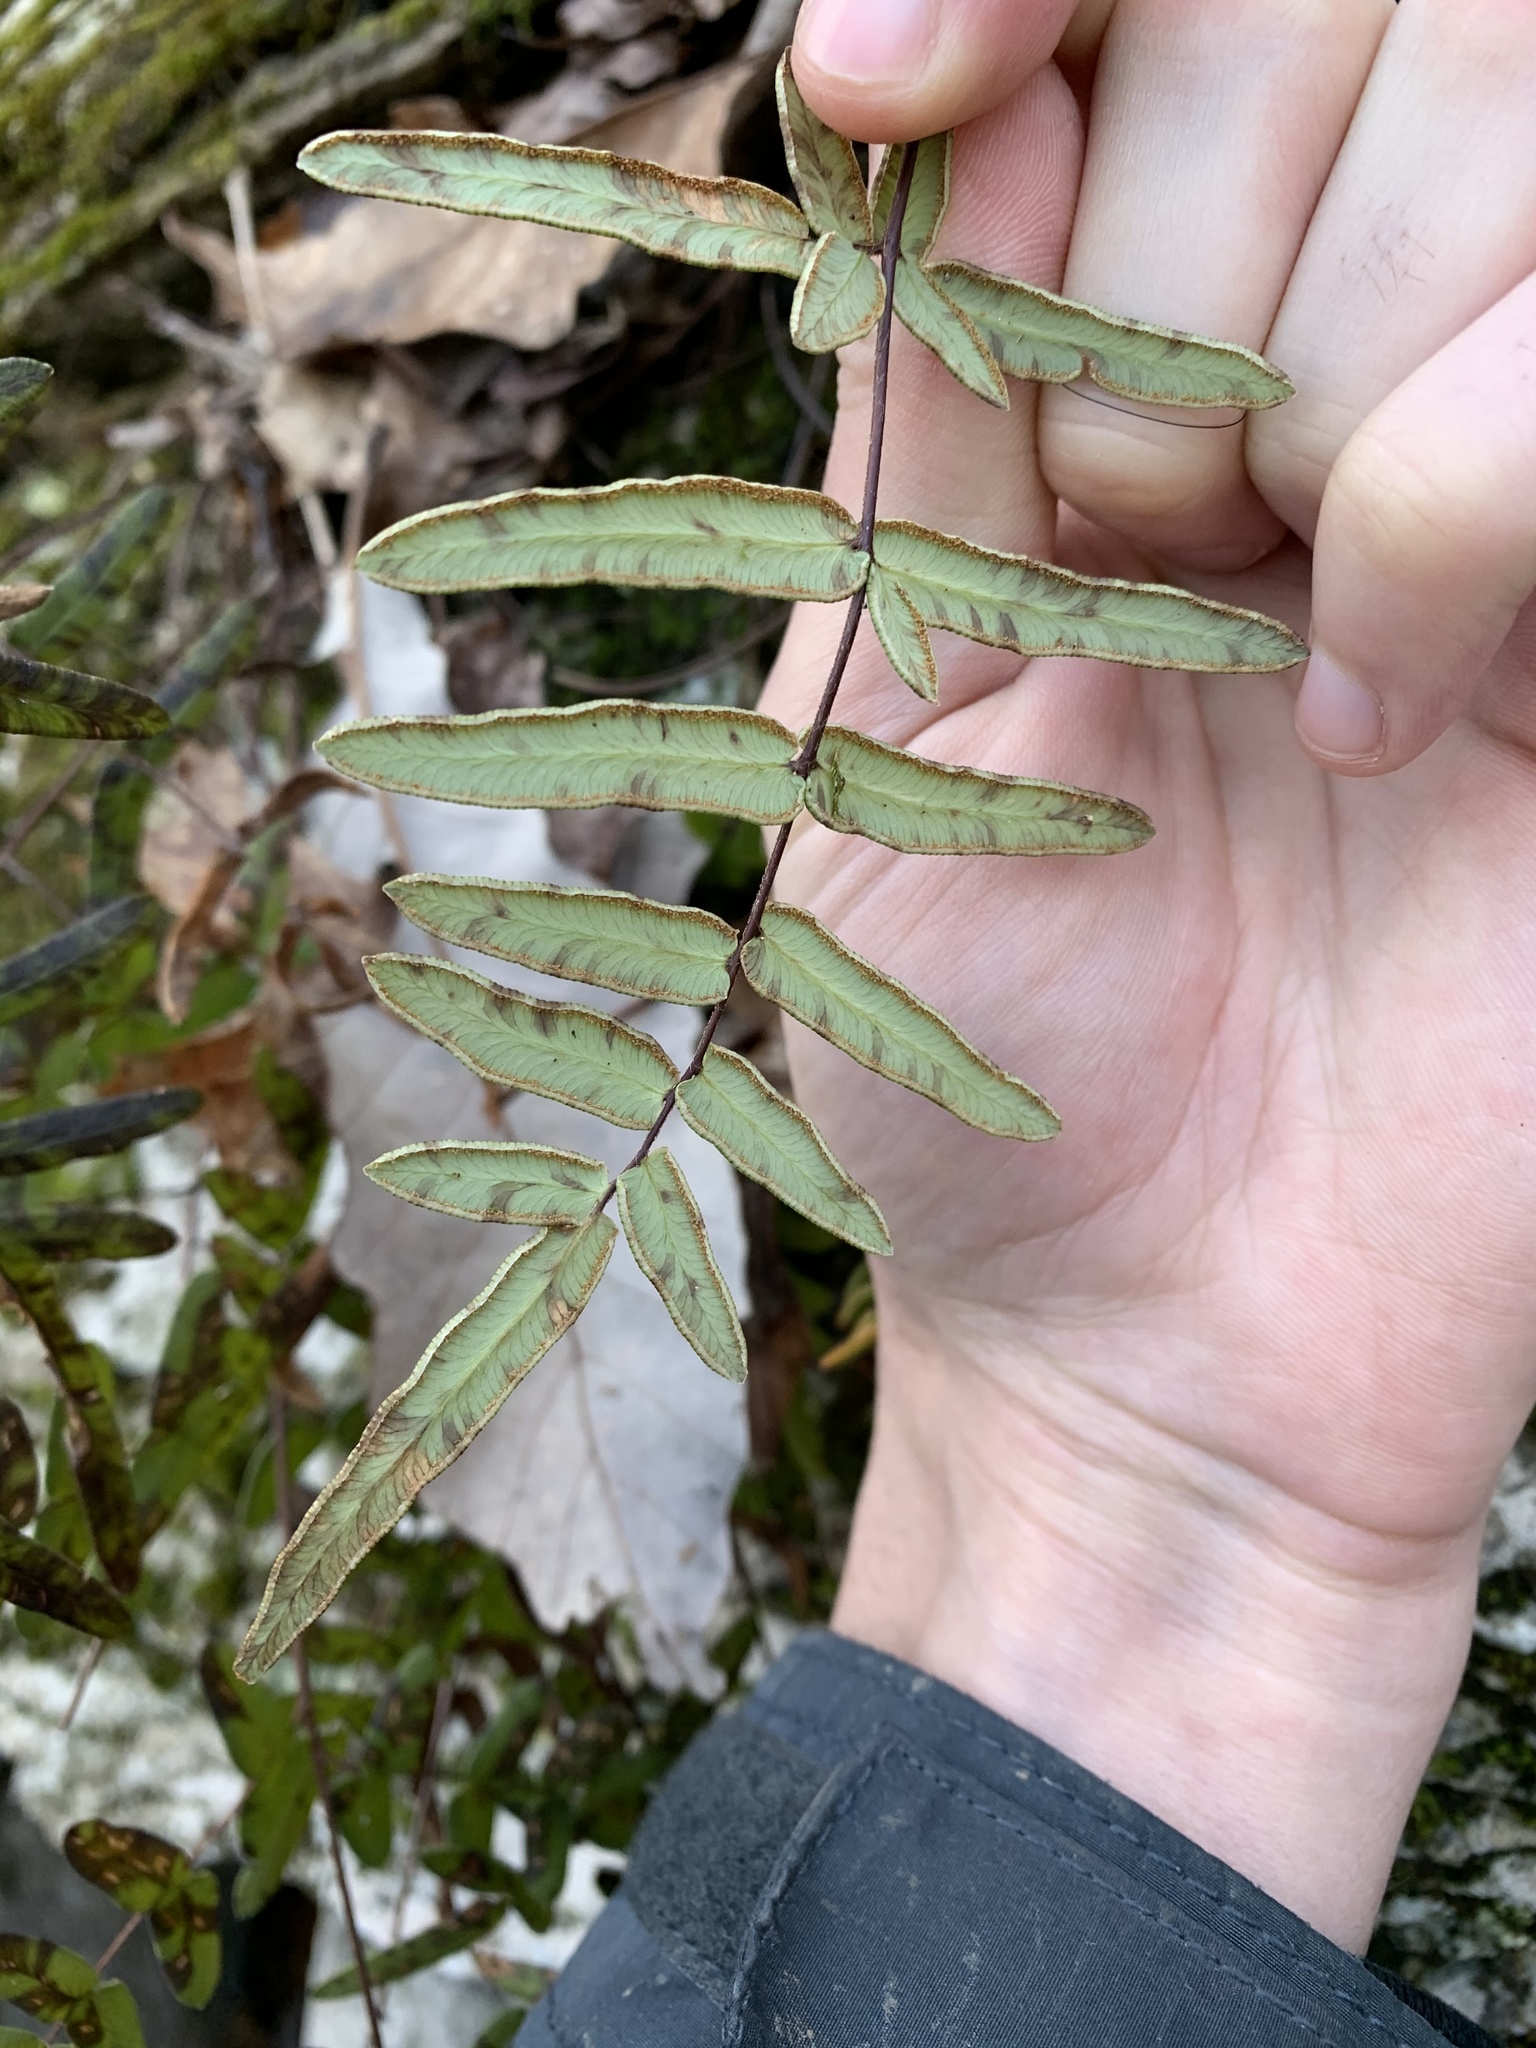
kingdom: Plantae
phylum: Tracheophyta
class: Polypodiopsida
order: Polypodiales
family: Pteridaceae
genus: Pellaea
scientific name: Pellaea atropurpurea
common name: Hairy cliffbrake
